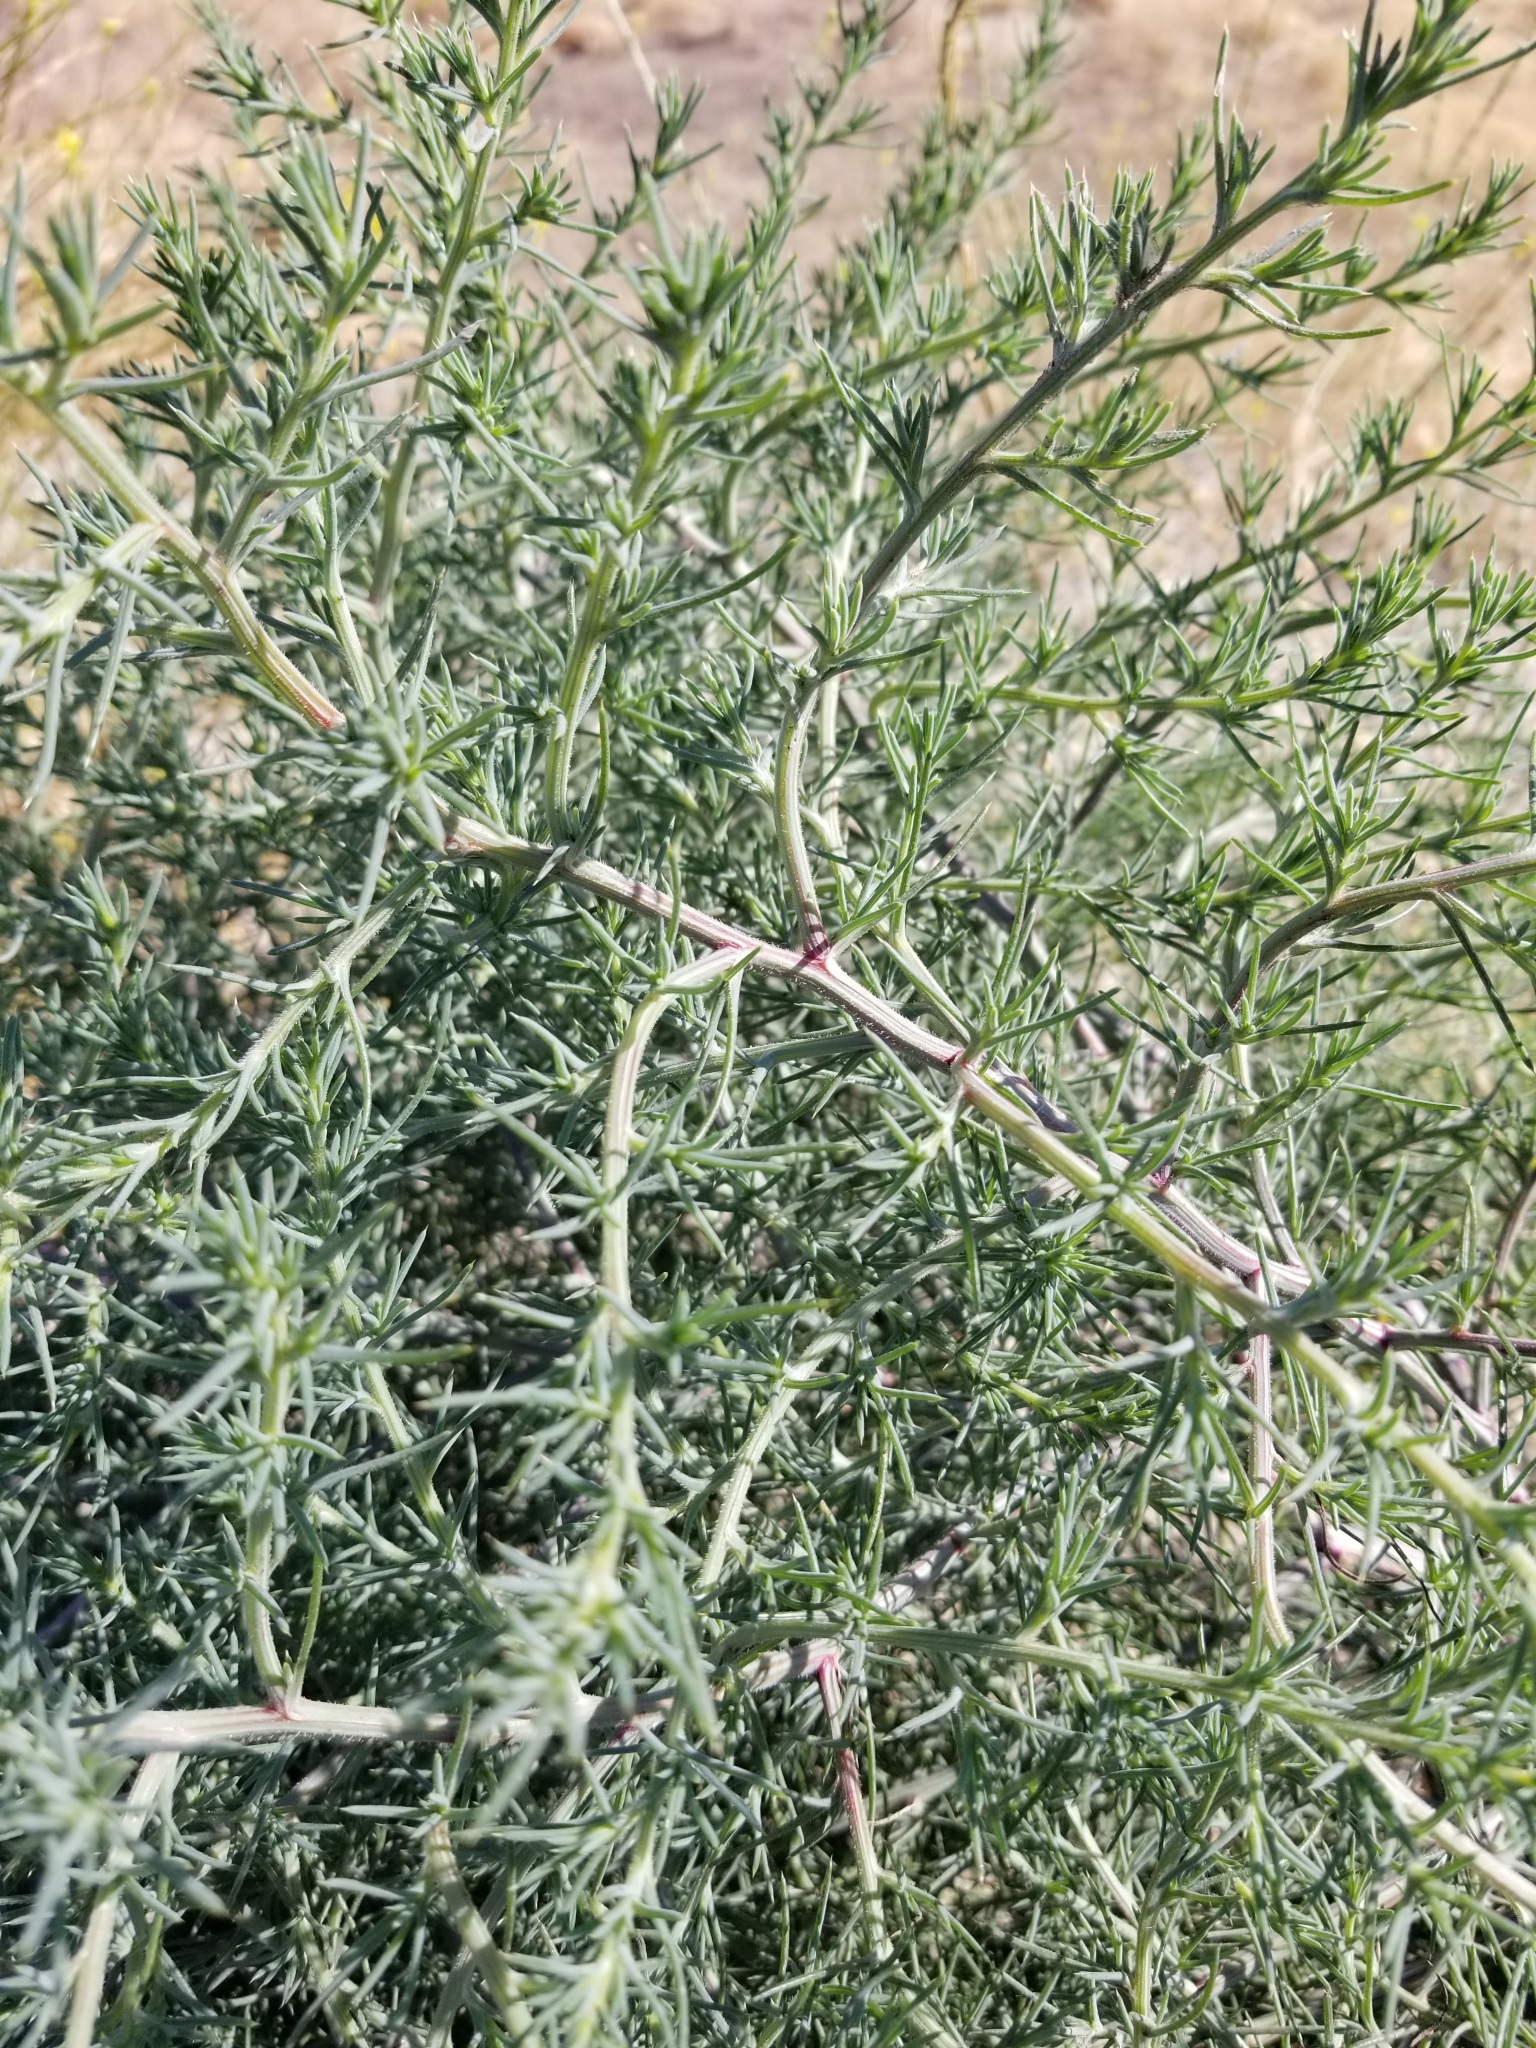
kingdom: Plantae
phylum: Tracheophyta
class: Magnoliopsida
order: Caryophyllales
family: Amaranthaceae
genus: Salsola
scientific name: Salsola tragus
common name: Prickly russian thistle
